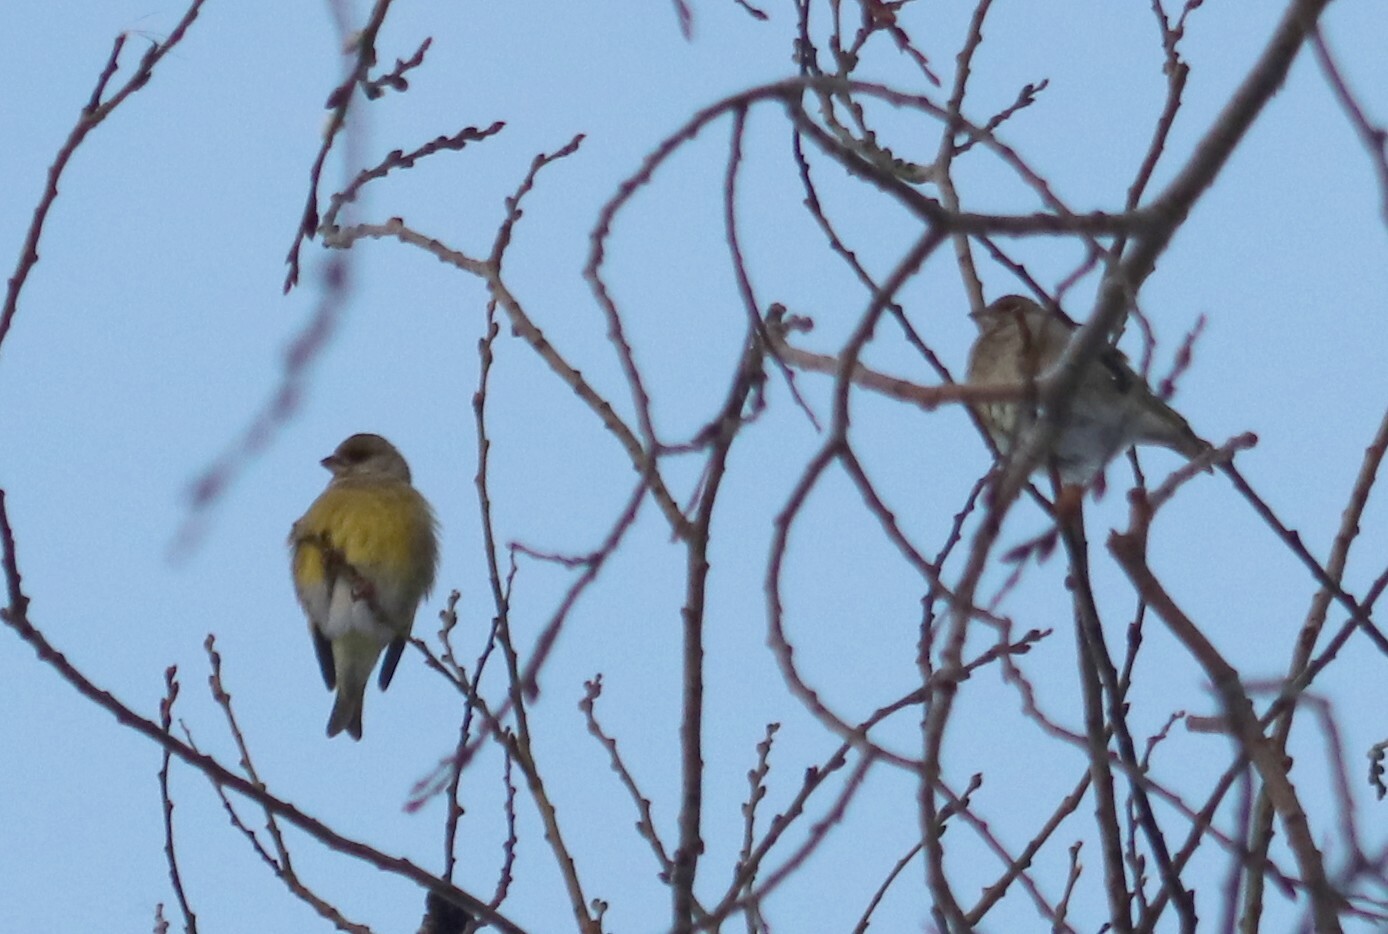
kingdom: Plantae
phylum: Tracheophyta
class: Liliopsida
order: Poales
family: Poaceae
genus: Chloris
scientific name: Chloris chloris
